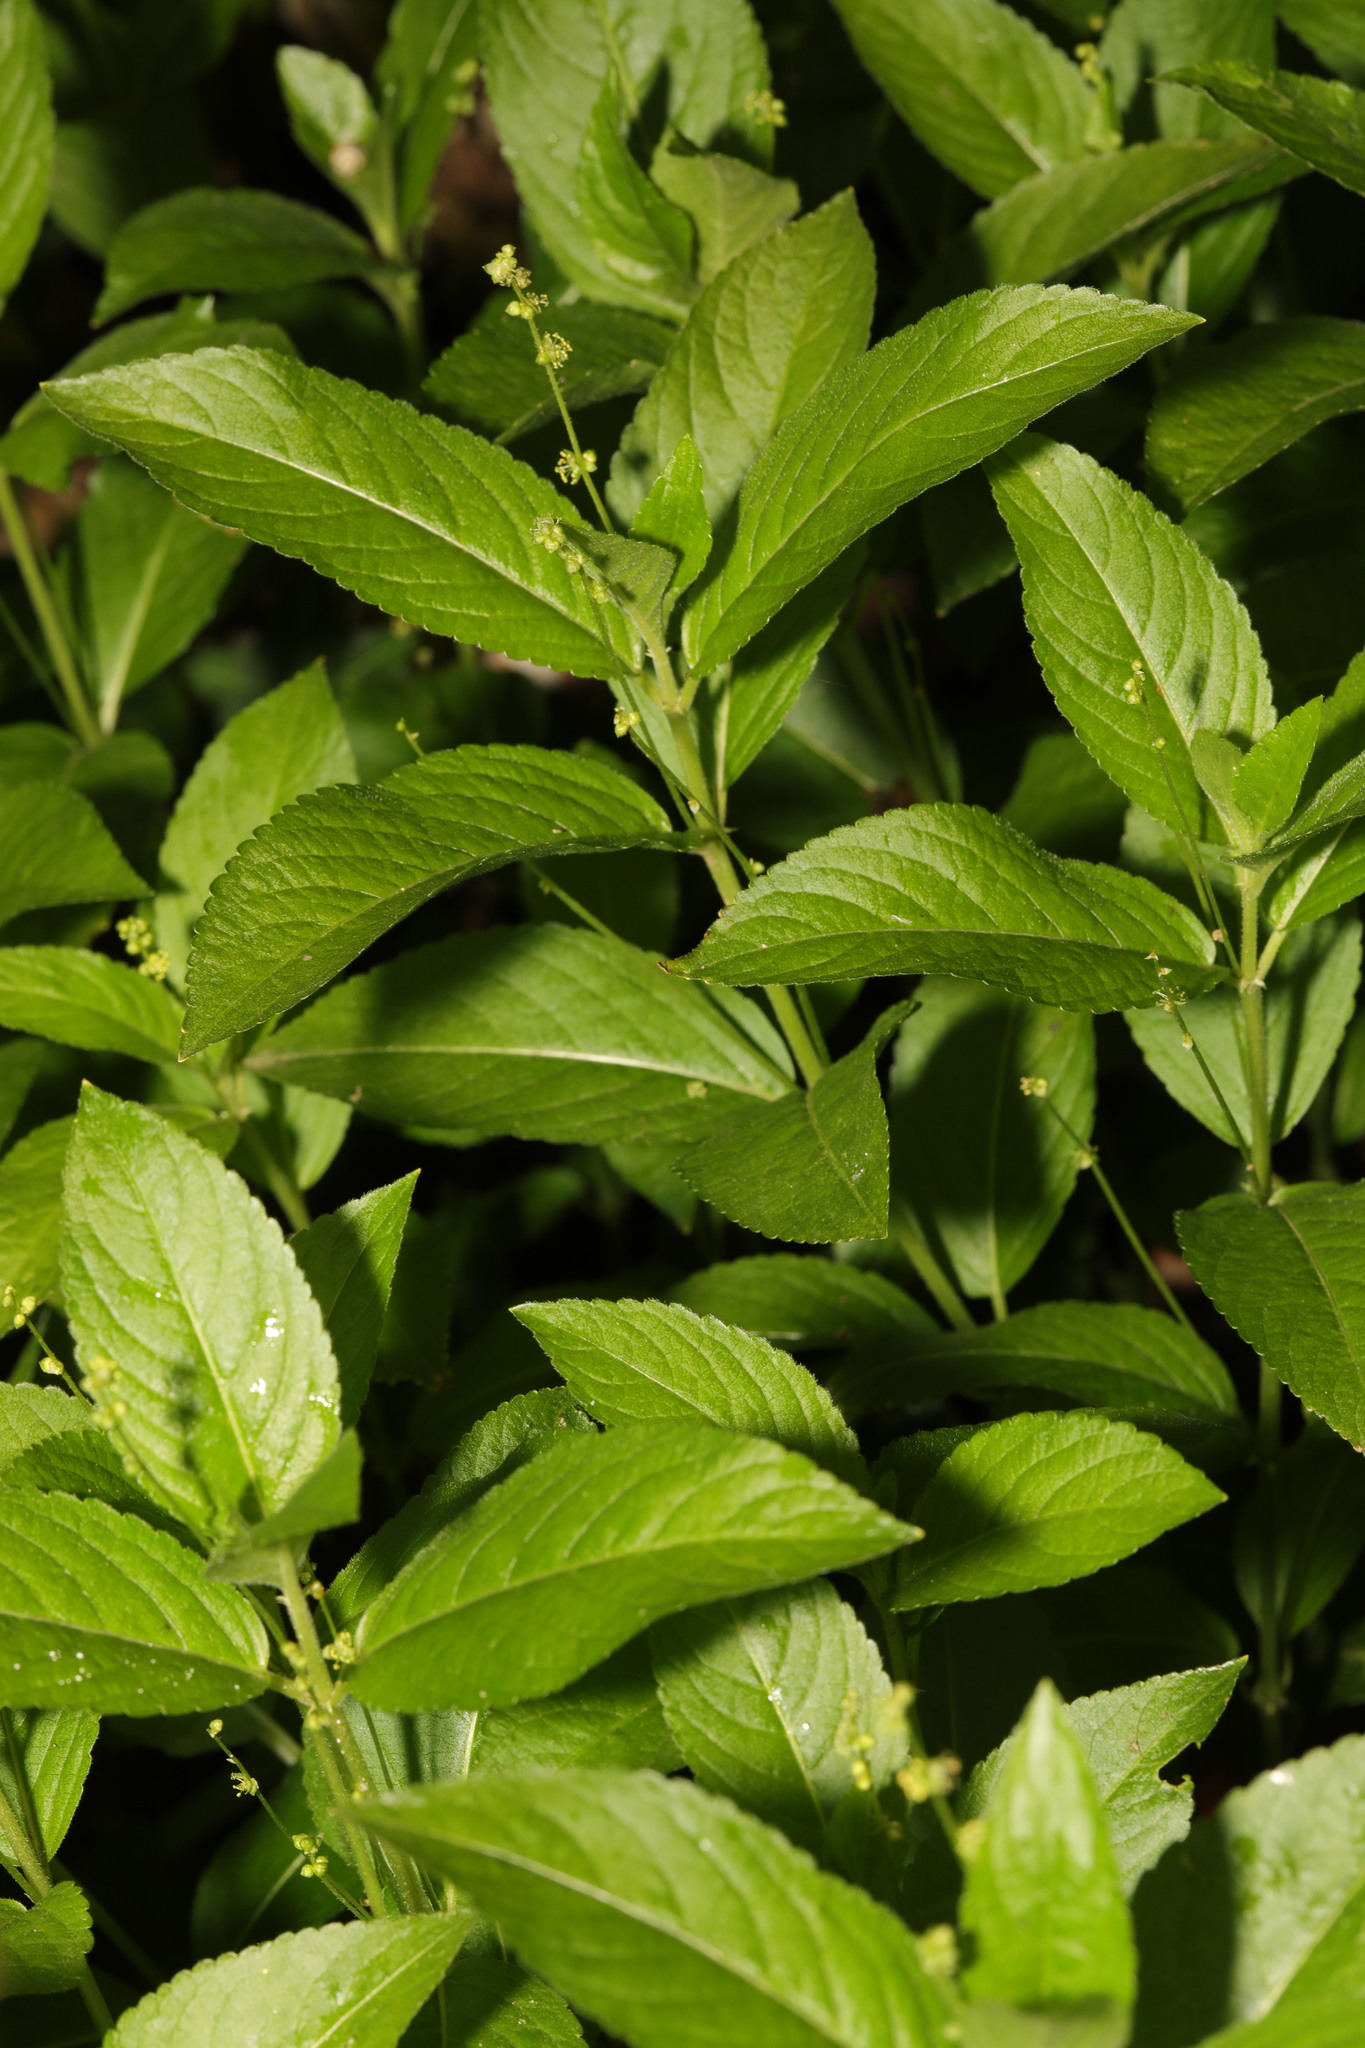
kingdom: Plantae
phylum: Tracheophyta
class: Magnoliopsida
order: Malpighiales
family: Euphorbiaceae
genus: Mercurialis
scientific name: Mercurialis perennis
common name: Dog mercury
